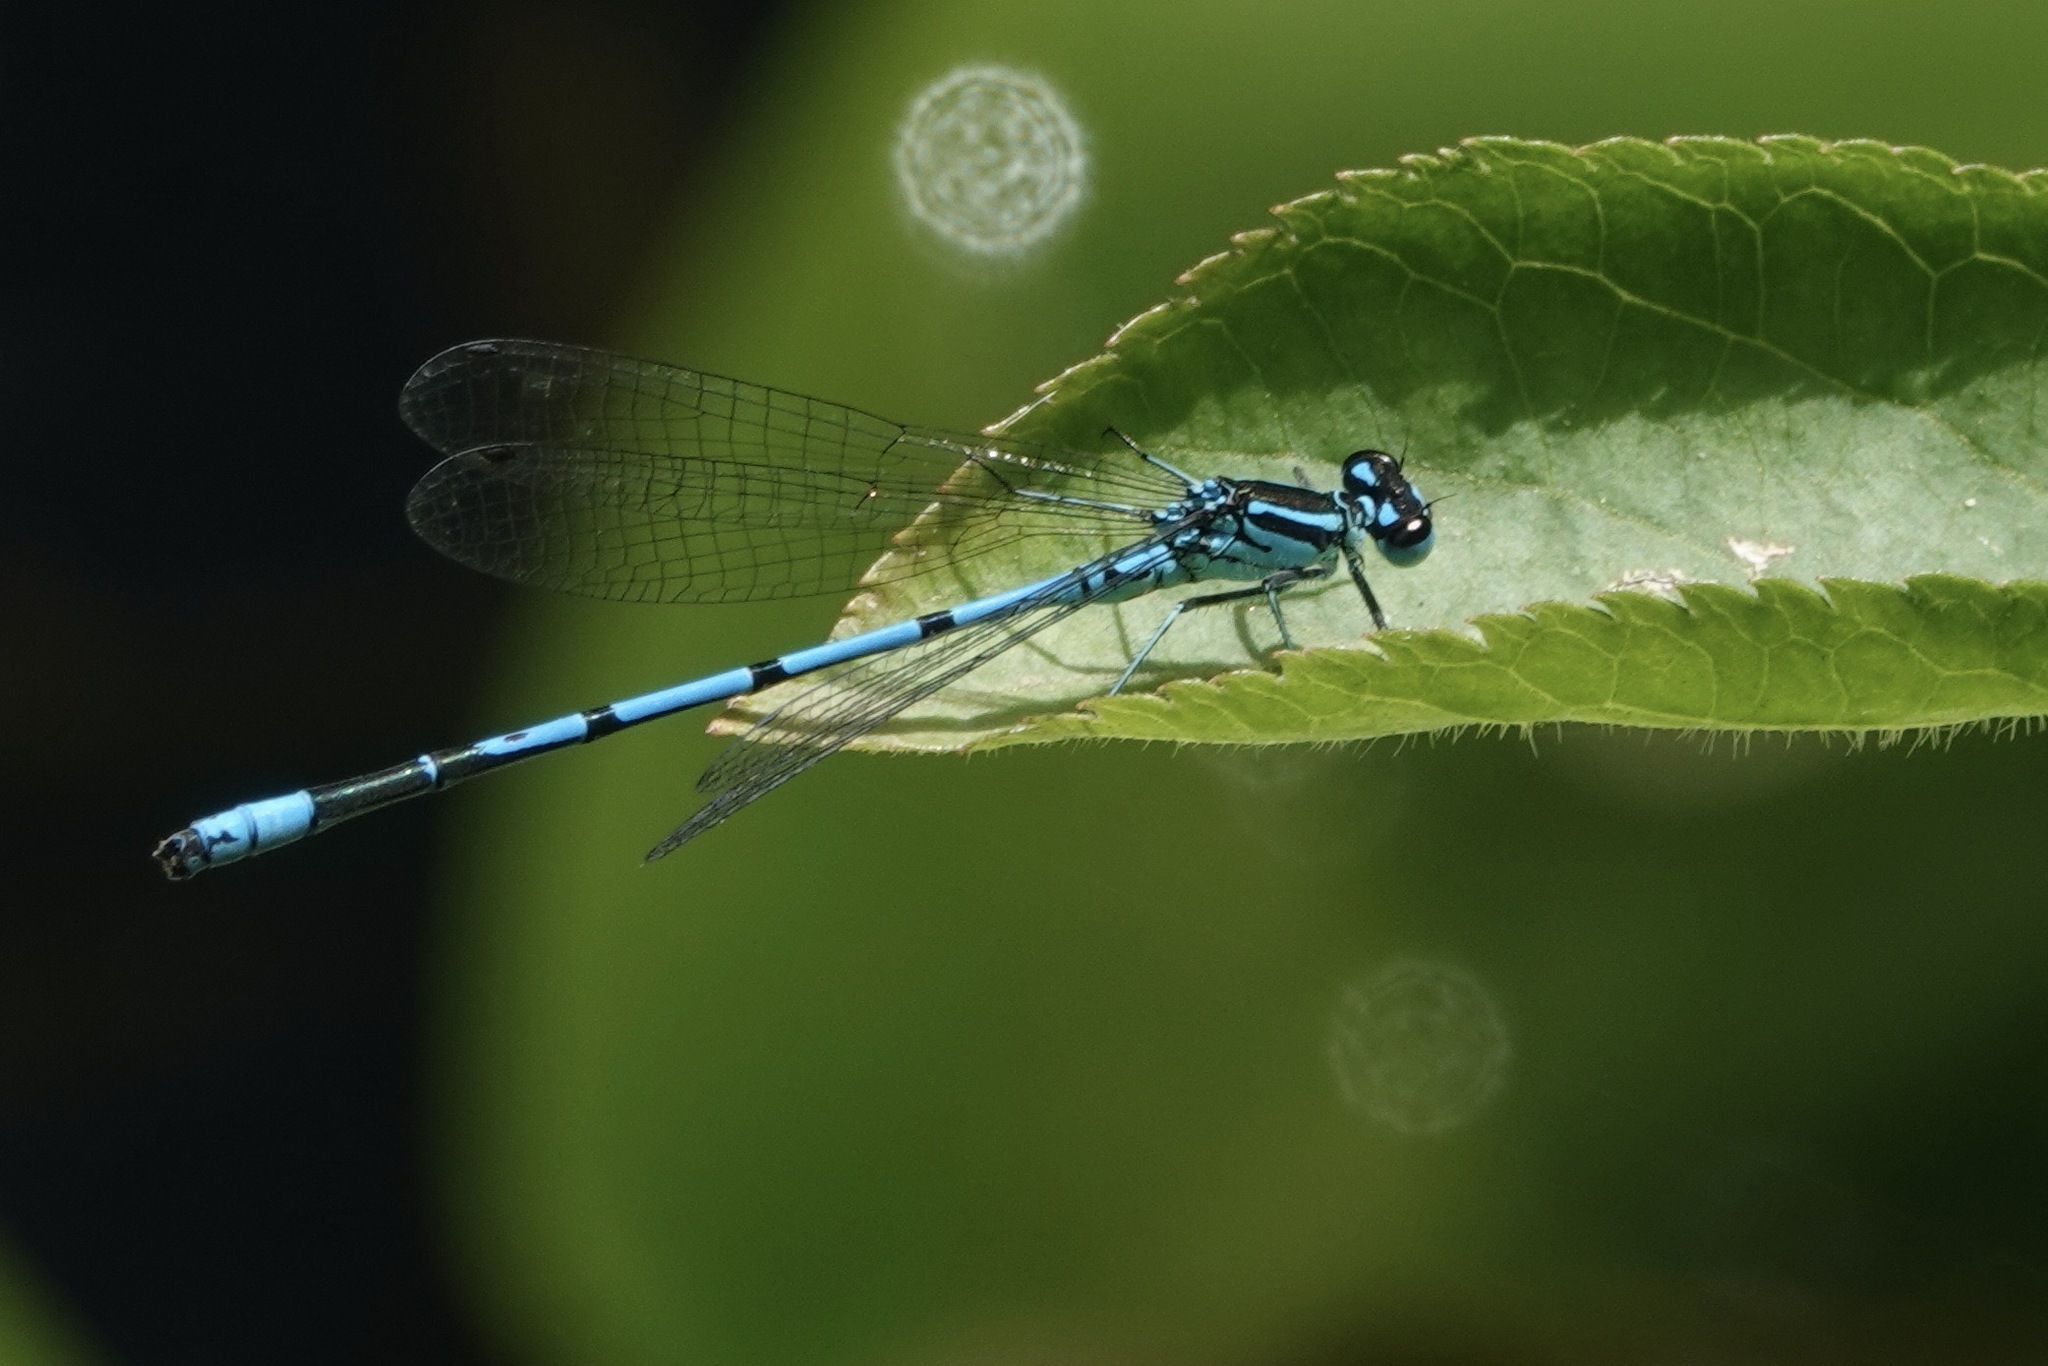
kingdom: Animalia
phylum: Arthropoda
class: Insecta
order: Odonata
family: Coenagrionidae
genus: Coenagrion
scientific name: Coenagrion puella
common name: Azure damselfly
